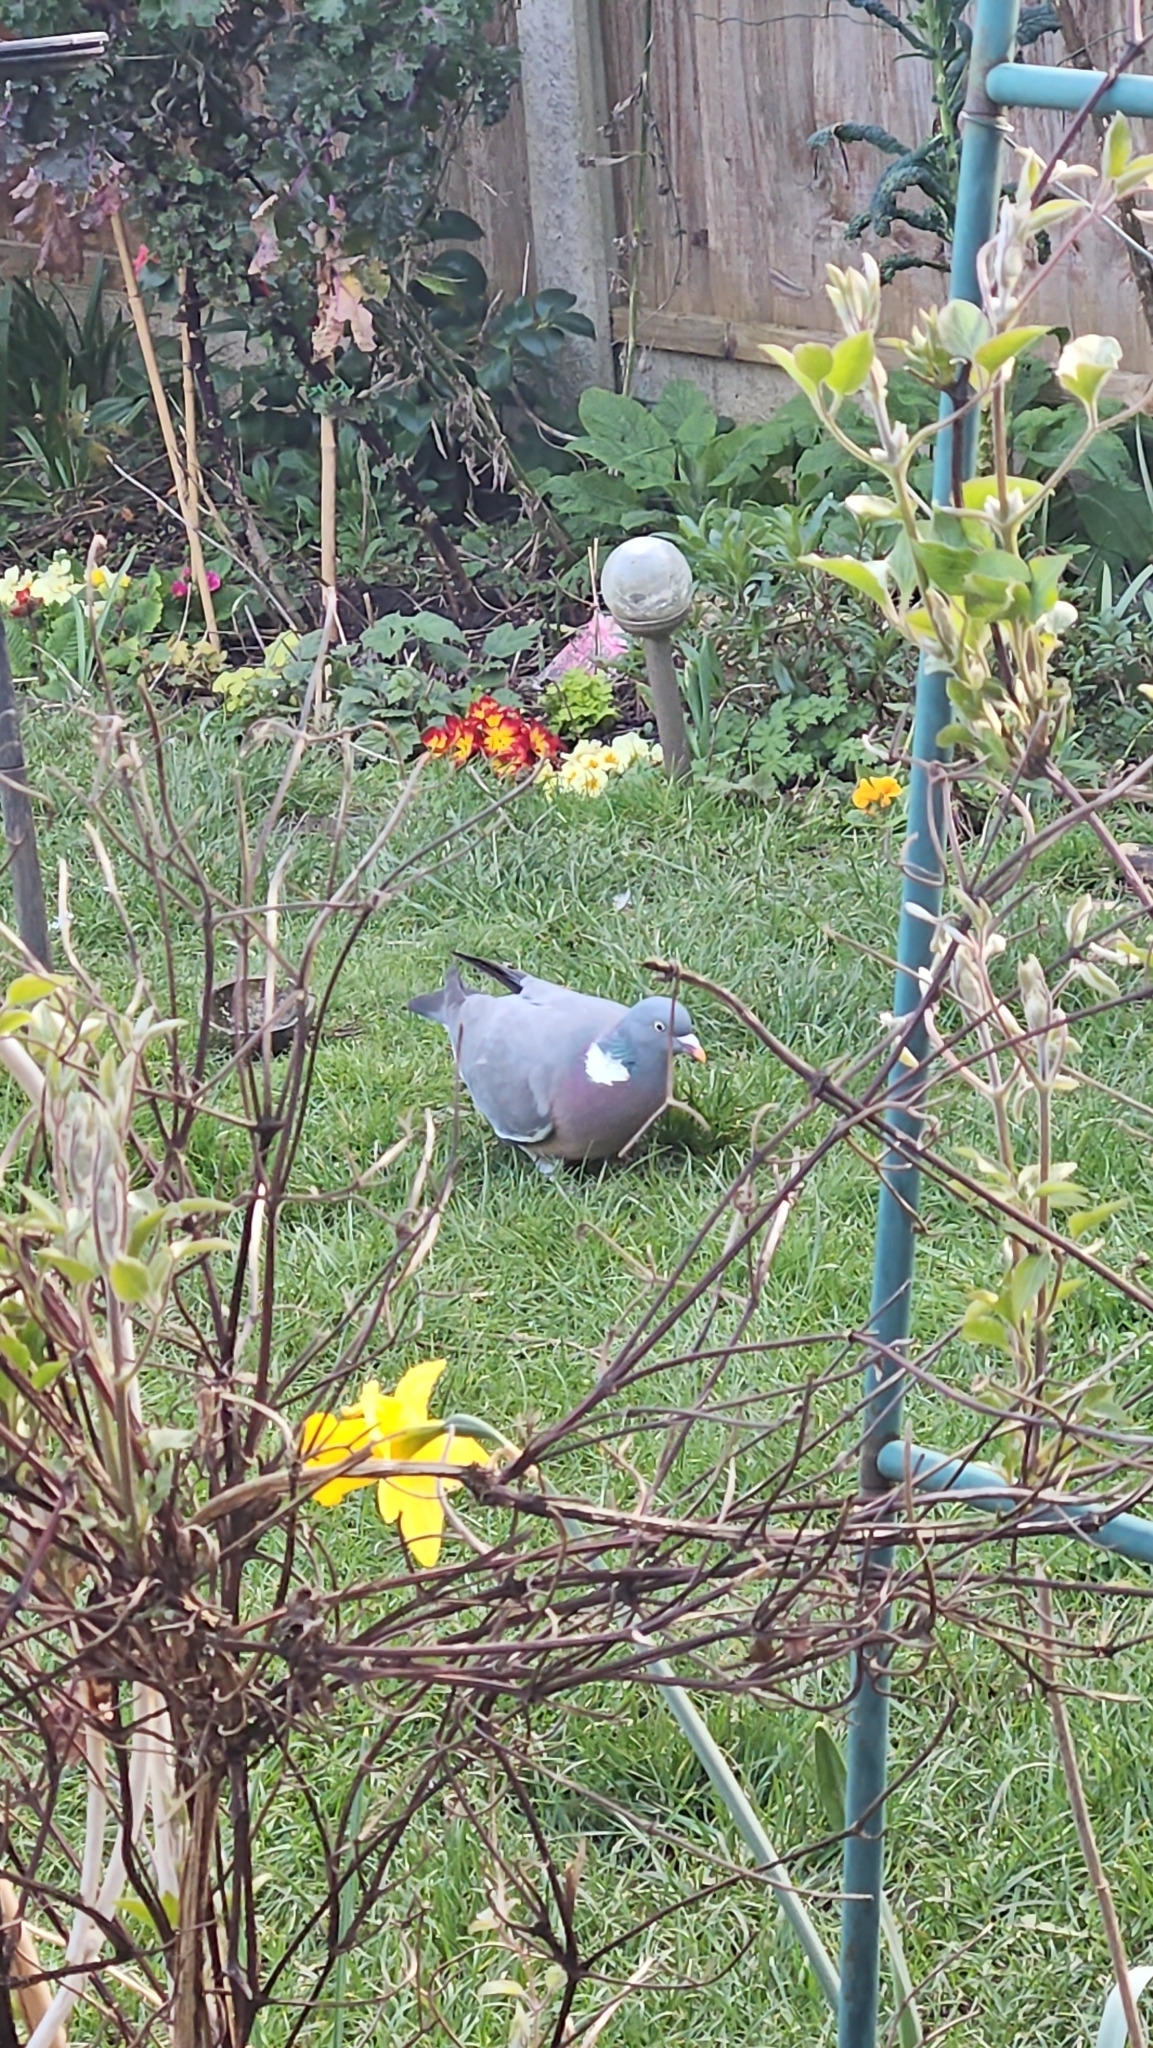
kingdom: Animalia
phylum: Chordata
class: Aves
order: Columbiformes
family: Columbidae
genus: Columba
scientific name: Columba palumbus
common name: Common wood pigeon
